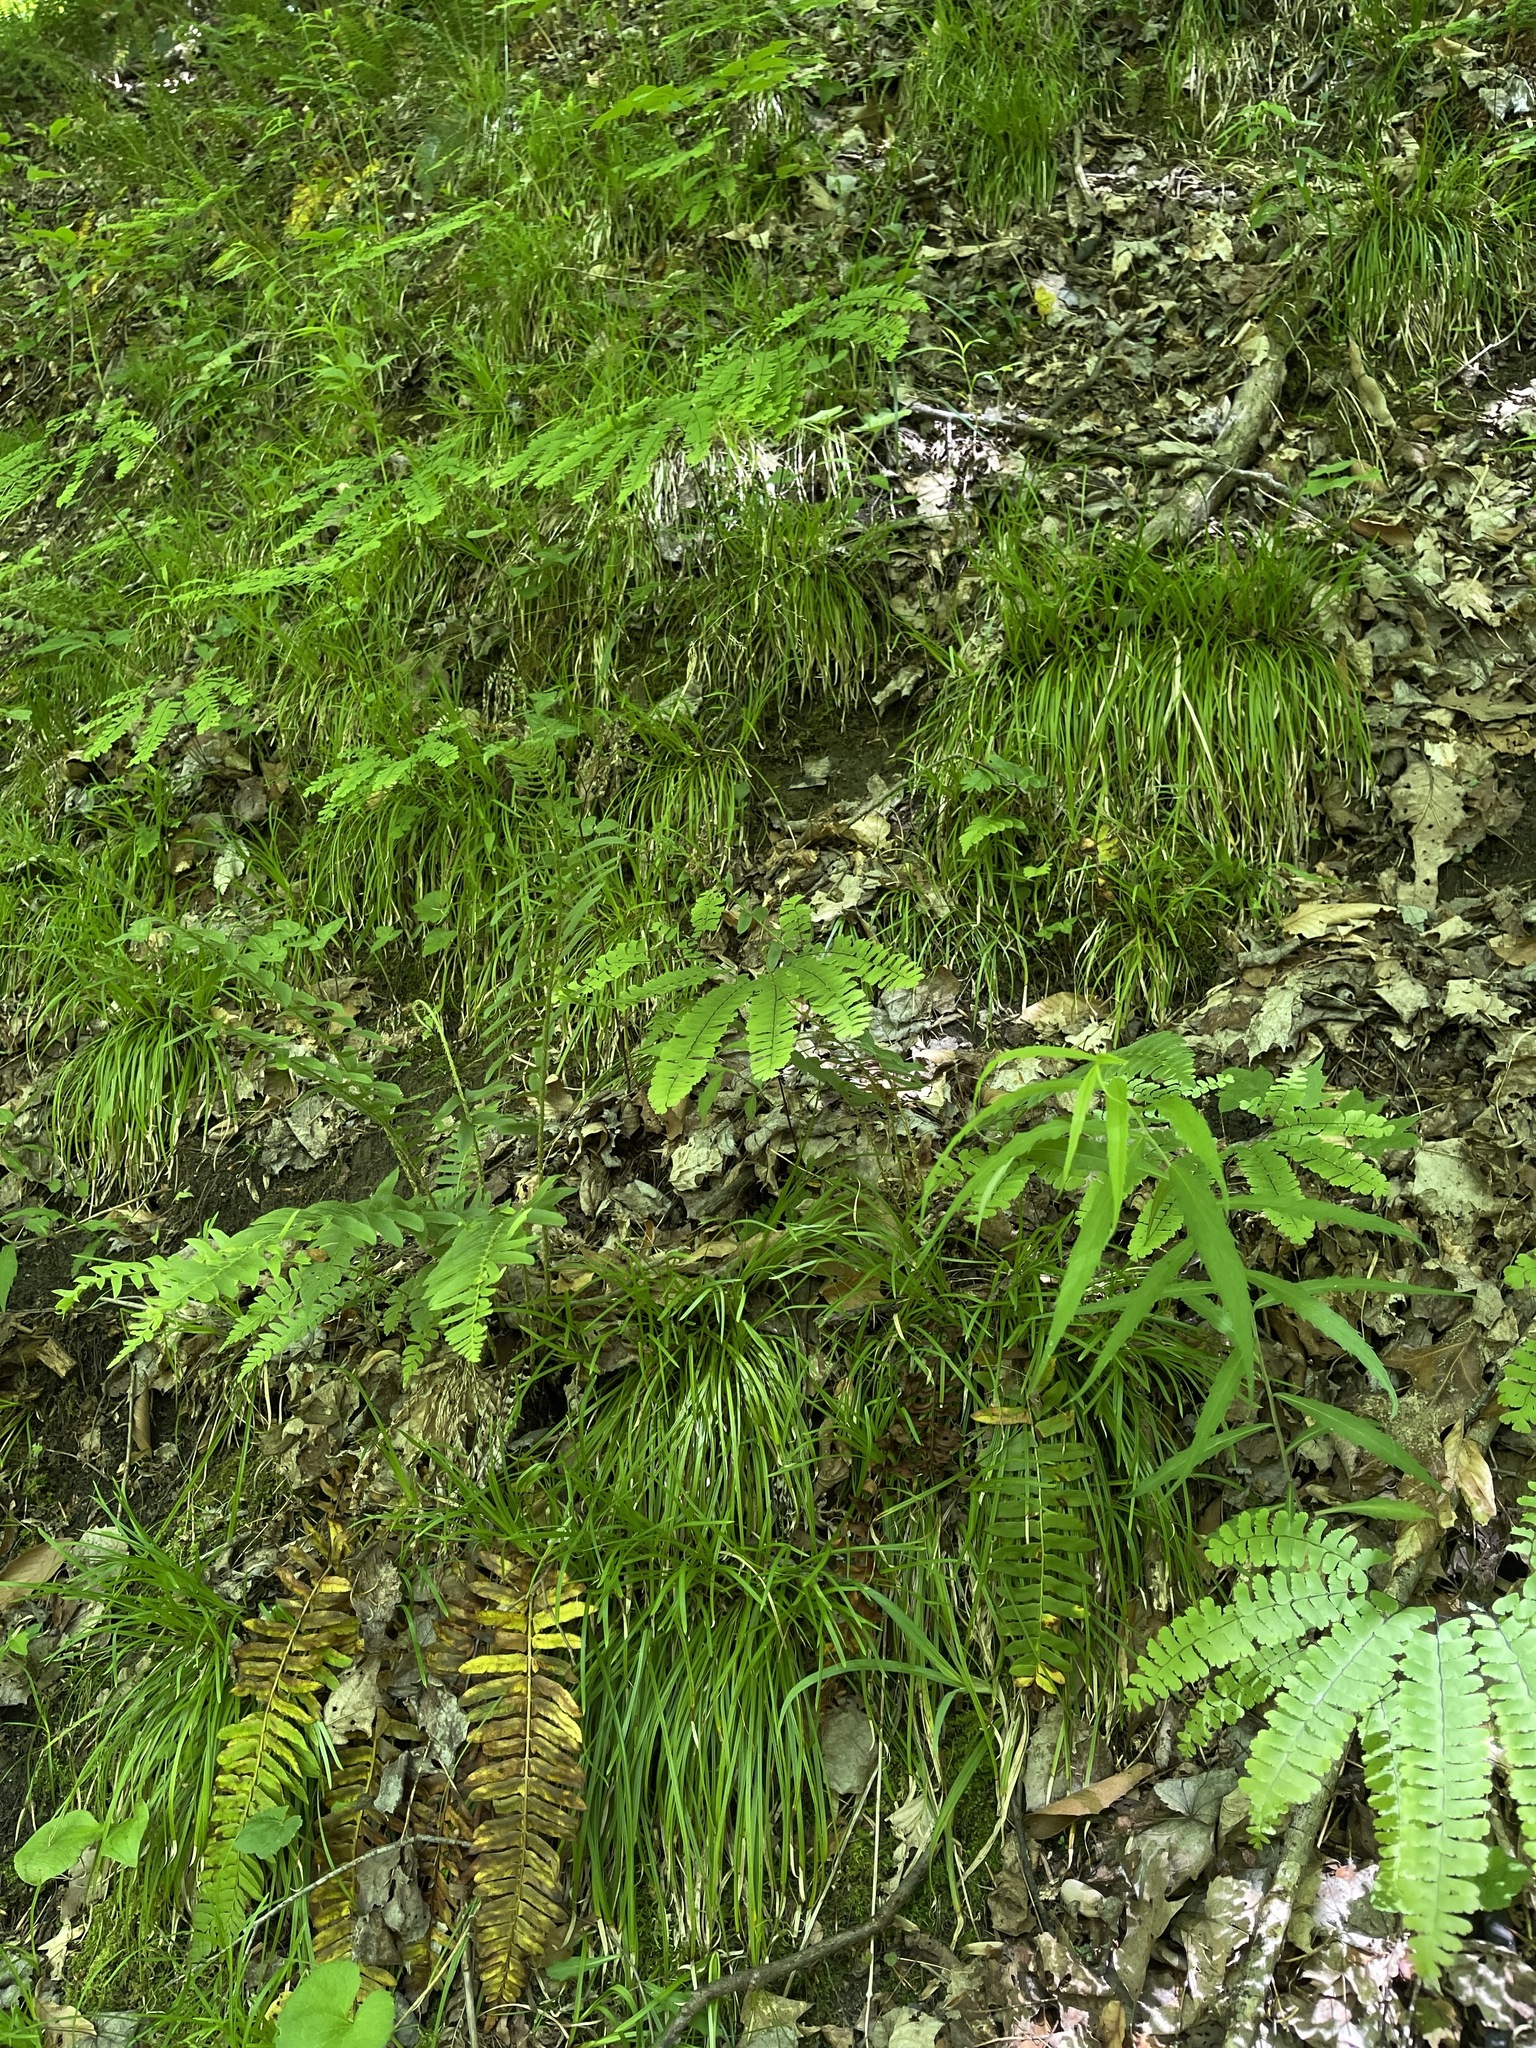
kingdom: Plantae
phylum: Tracheophyta
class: Liliopsida
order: Poales
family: Cyperaceae
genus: Carex
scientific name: Carex pedunculata
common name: Pedunculate sedge
